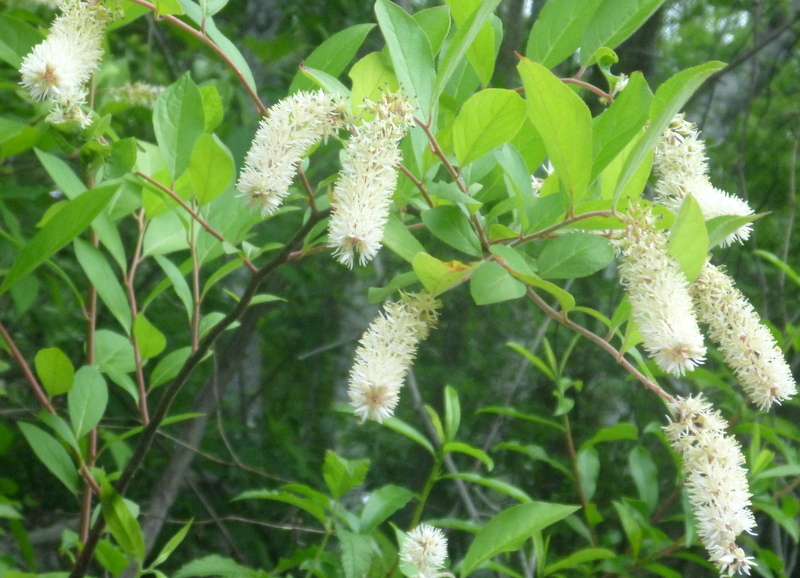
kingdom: Plantae
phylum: Tracheophyta
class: Magnoliopsida
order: Saxifragales
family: Iteaceae
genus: Itea
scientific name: Itea virginica
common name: Sweetspire
